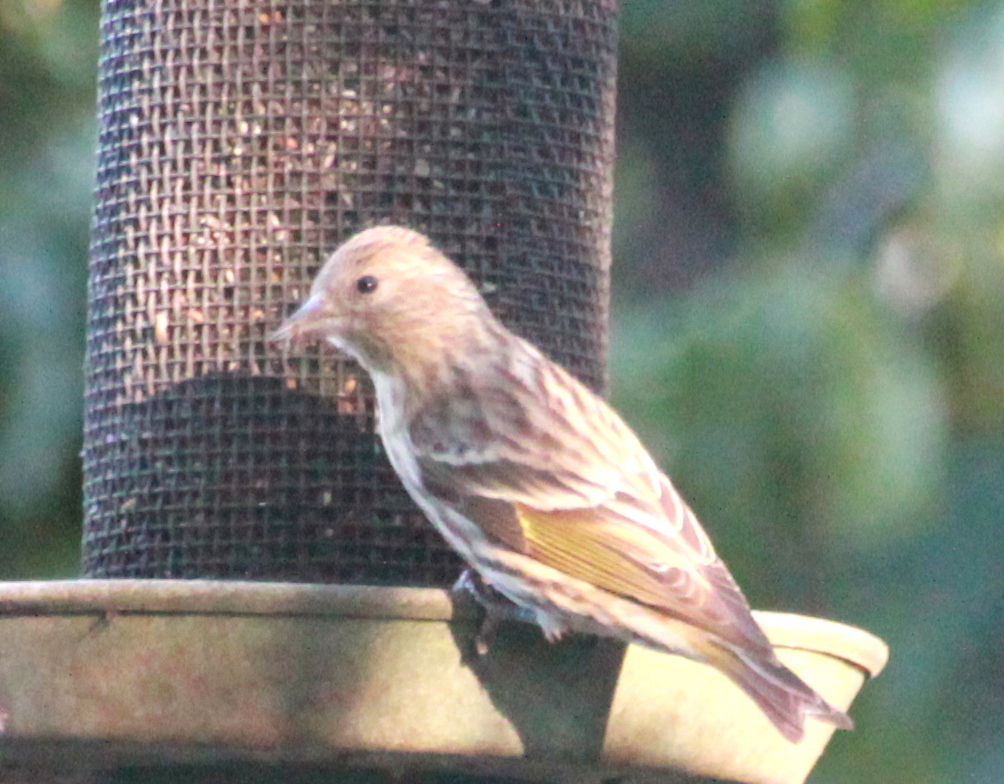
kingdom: Animalia
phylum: Chordata
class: Aves
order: Passeriformes
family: Fringillidae
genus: Spinus
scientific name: Spinus pinus
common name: Pine siskin
